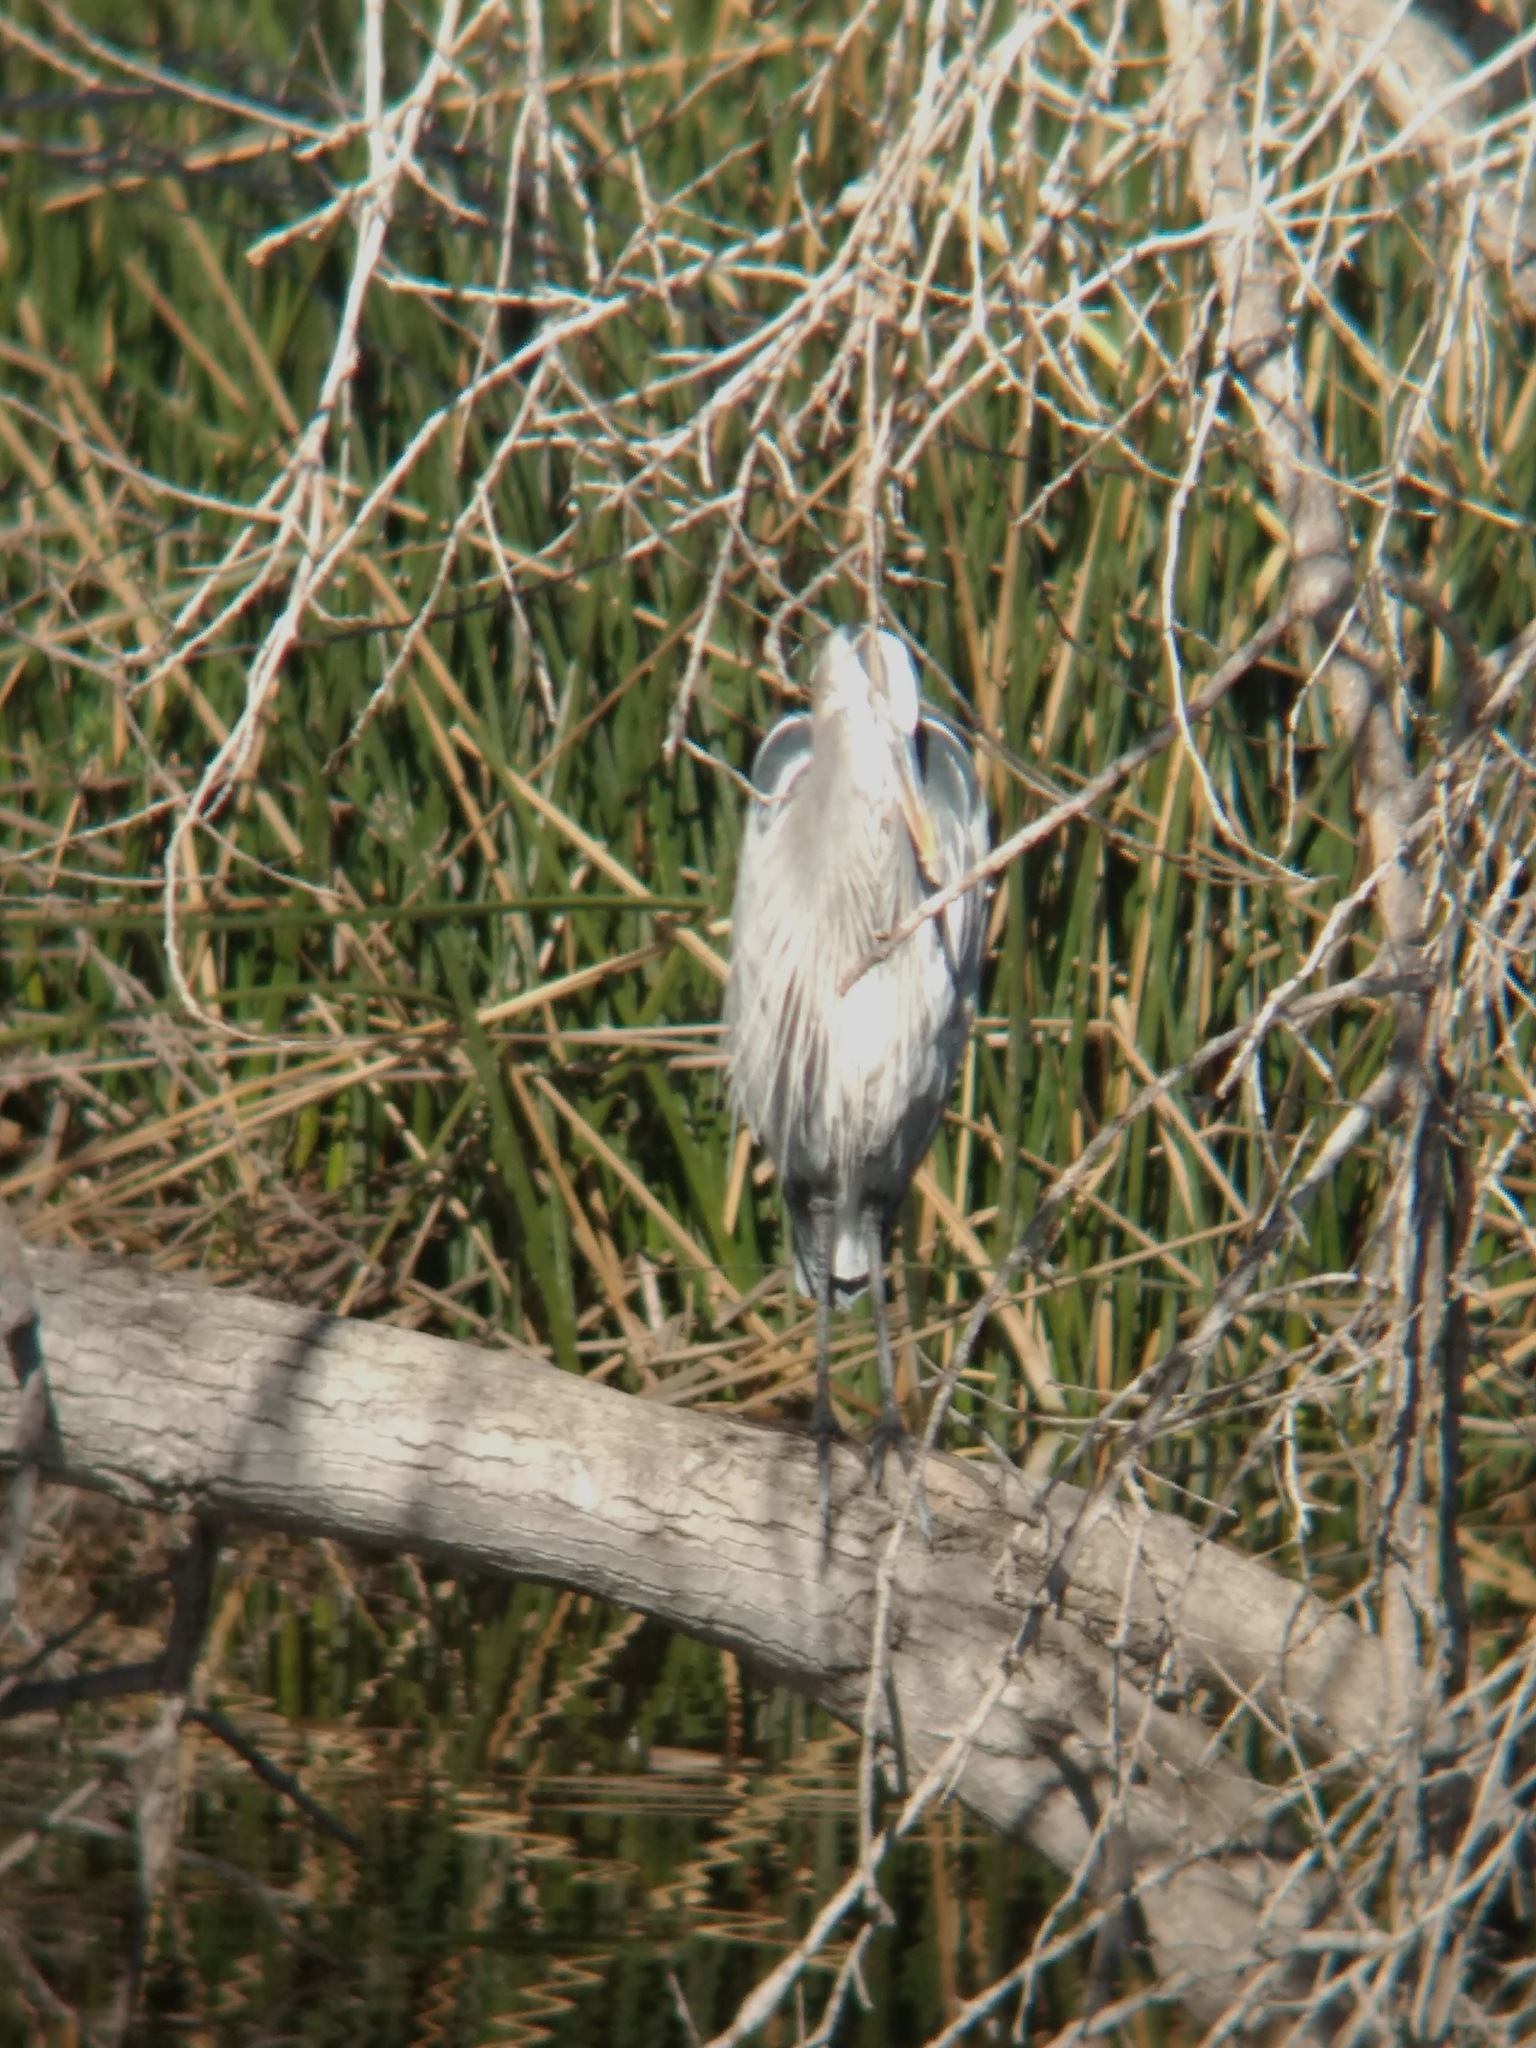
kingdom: Animalia
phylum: Chordata
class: Aves
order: Pelecaniformes
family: Ardeidae
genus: Ardea
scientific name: Ardea herodias
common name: Great blue heron
